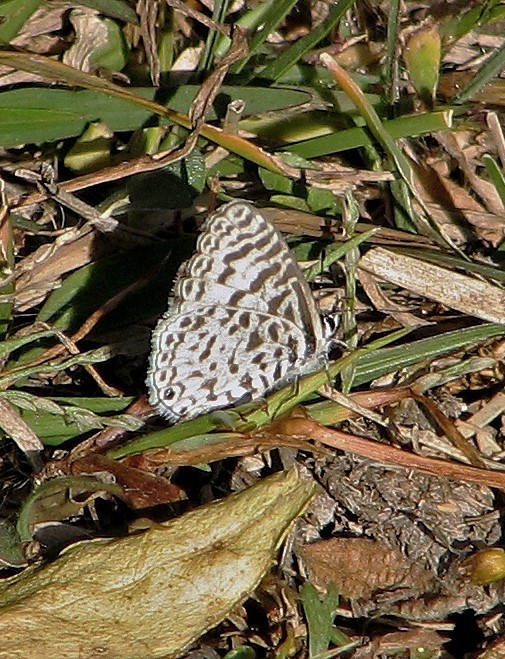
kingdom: Animalia
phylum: Arthropoda
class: Insecta
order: Lepidoptera
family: Lycaenidae
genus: Leptotes
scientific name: Leptotes cassius
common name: Cassius blue
